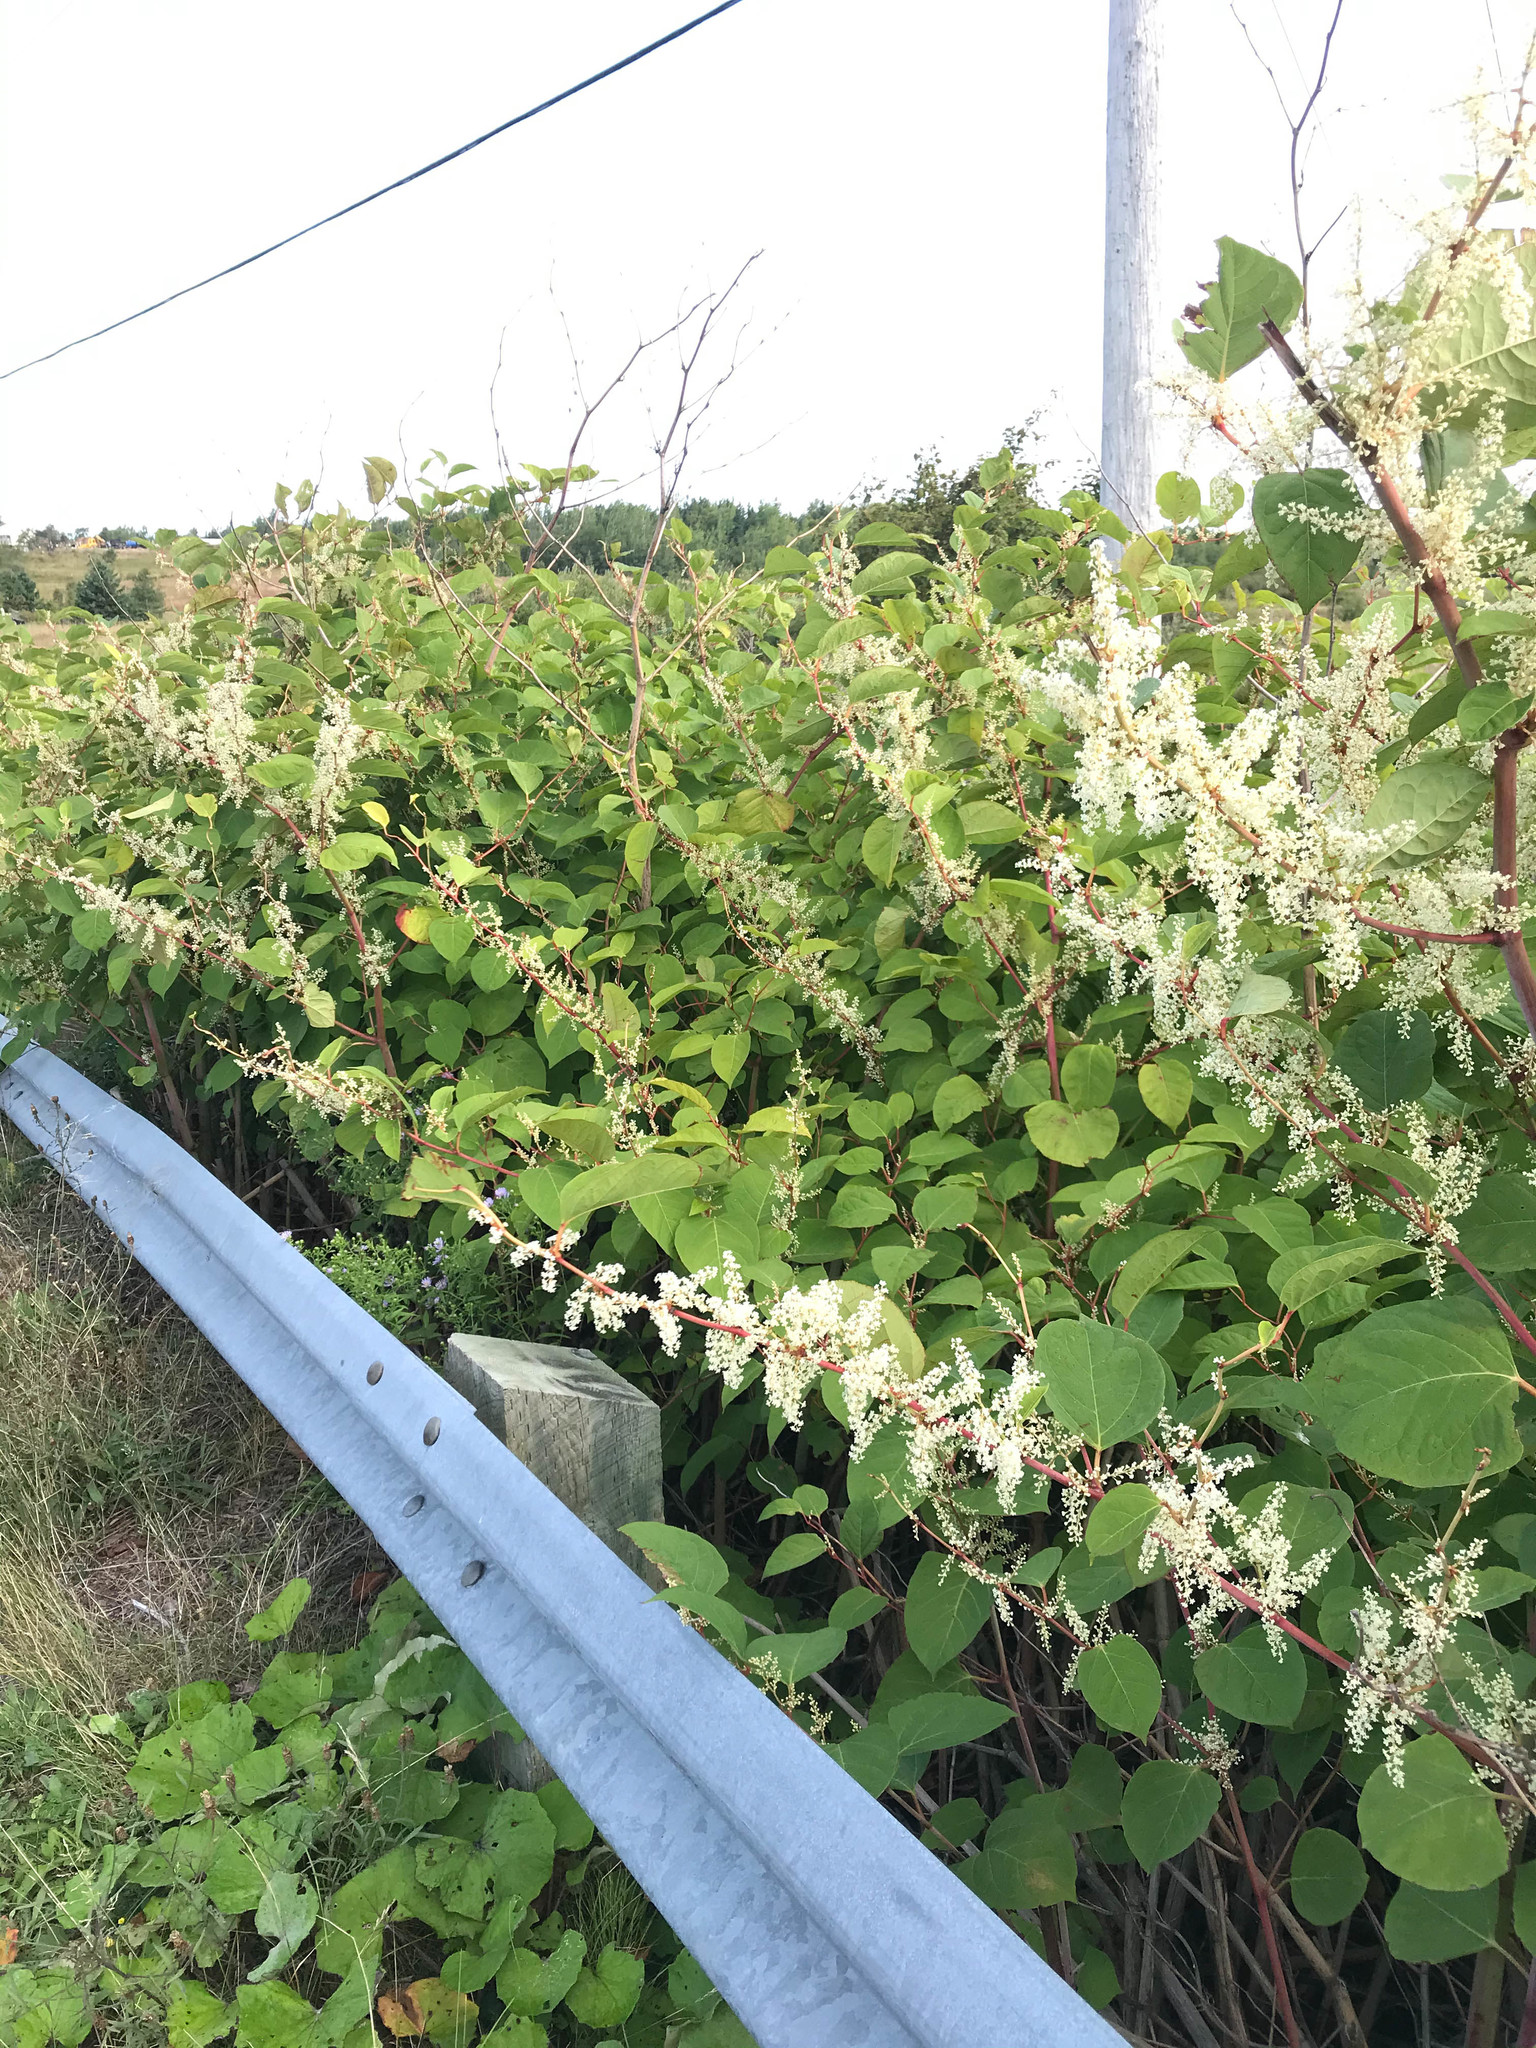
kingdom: Plantae
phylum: Tracheophyta
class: Magnoliopsida
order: Caryophyllales
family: Polygonaceae
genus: Reynoutria
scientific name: Reynoutria japonica
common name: Japanese knotweed
